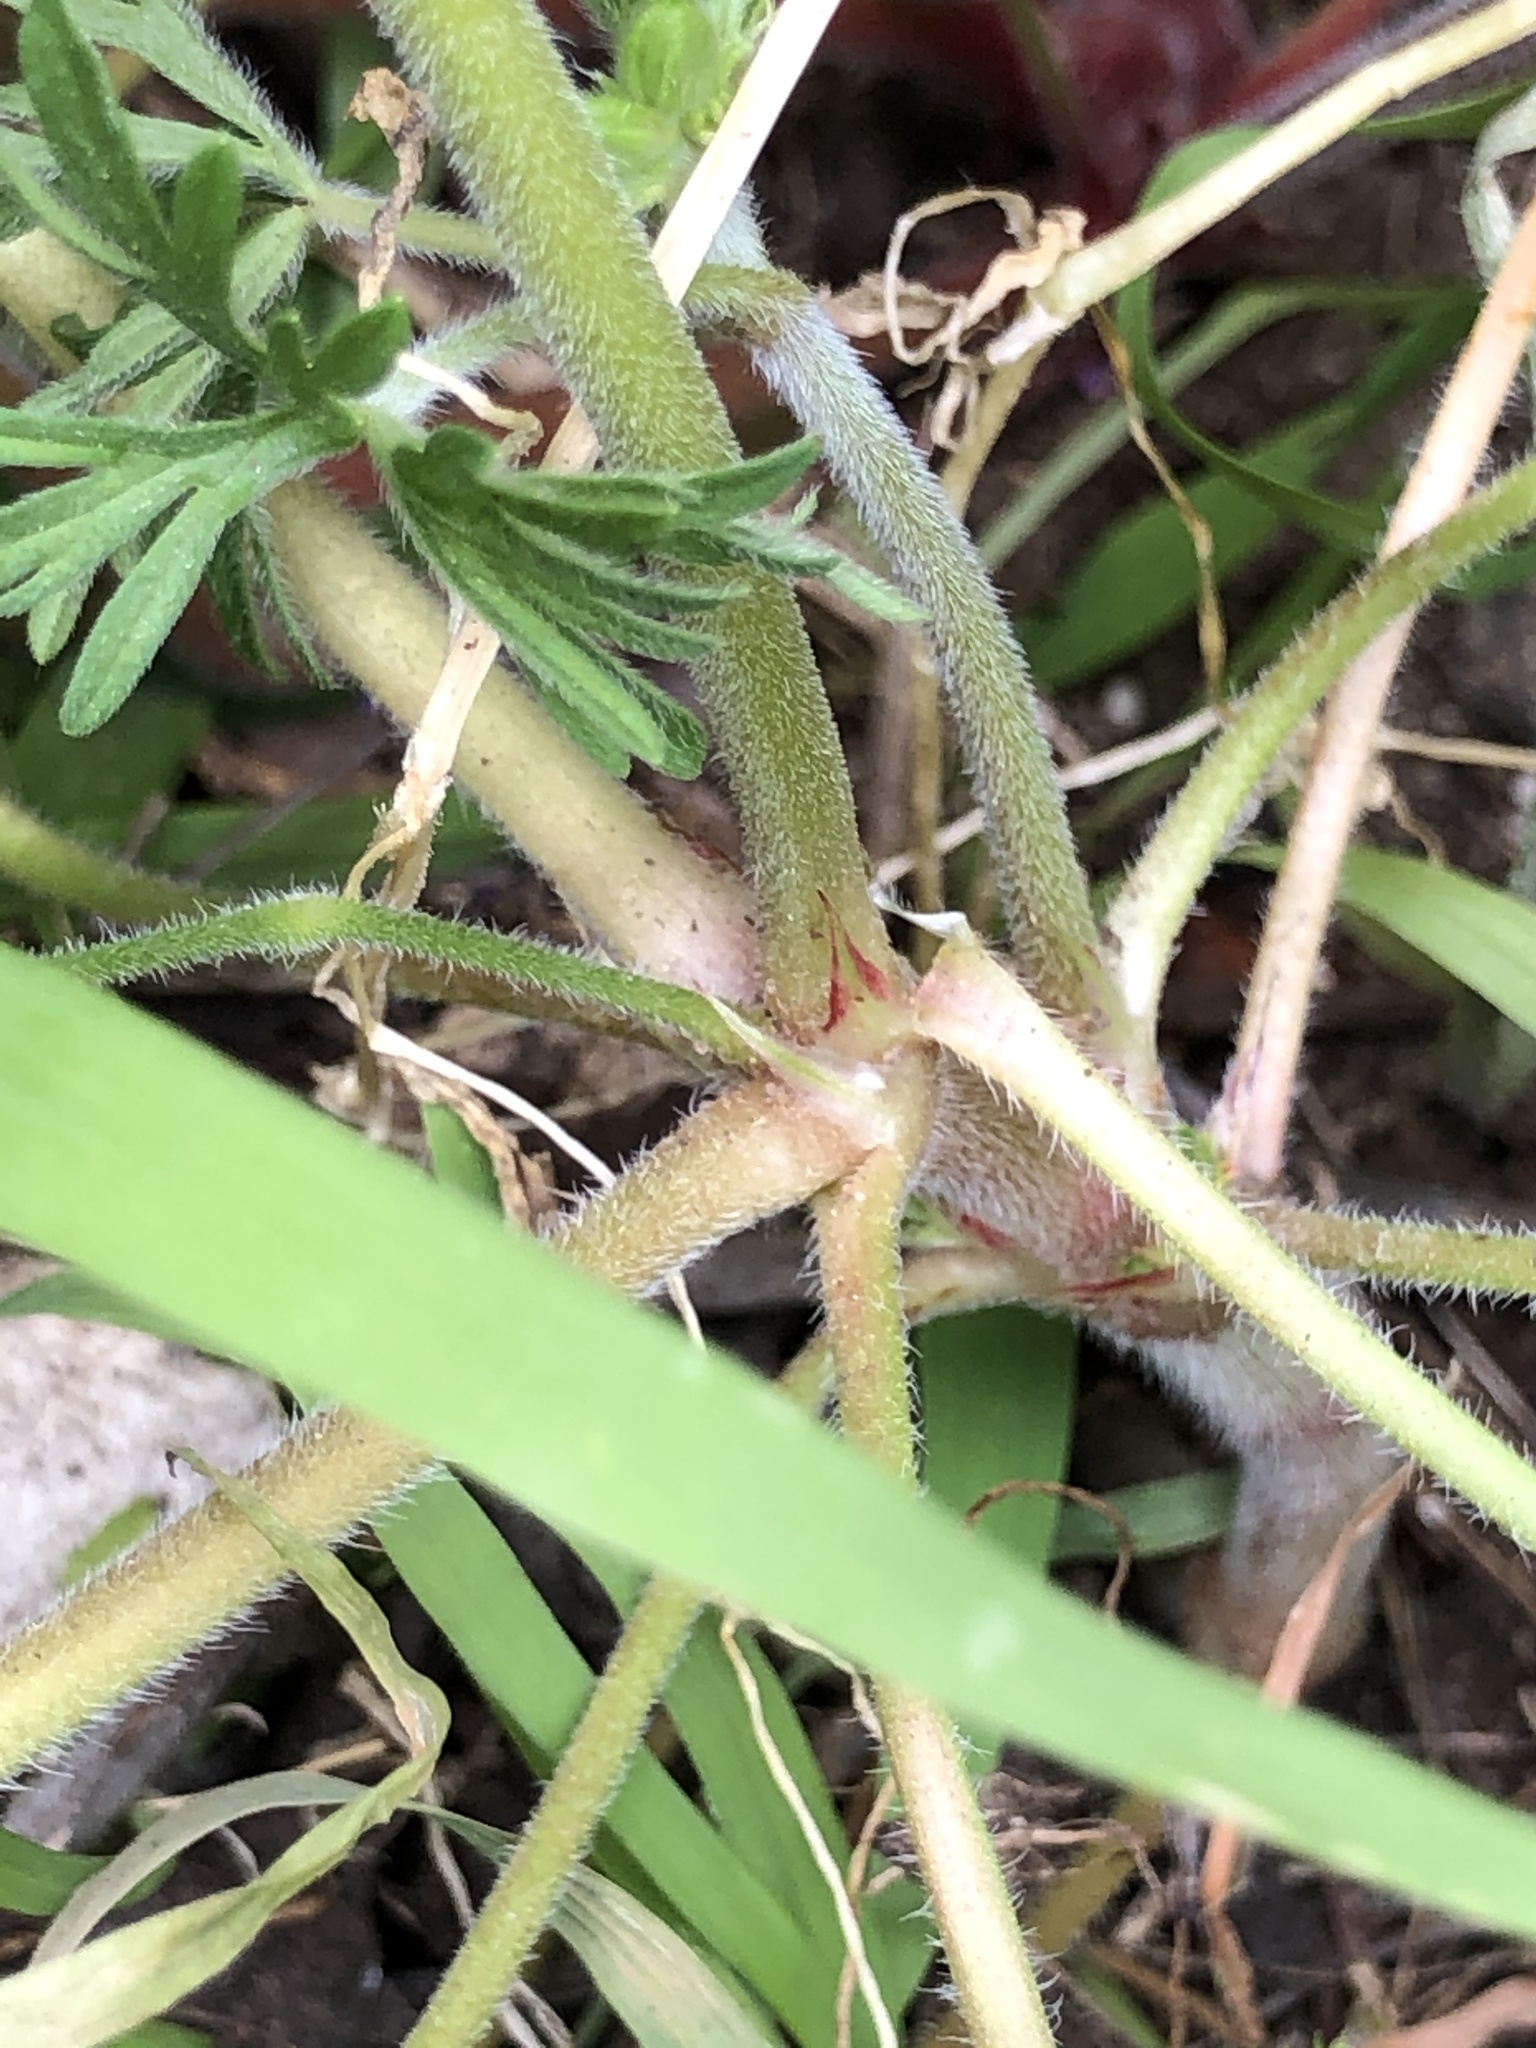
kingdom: Plantae
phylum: Tracheophyta
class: Magnoliopsida
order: Geraniales
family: Geraniaceae
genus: Geranium
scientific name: Geranium dissectum
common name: Cut-leaved crane's-bill
